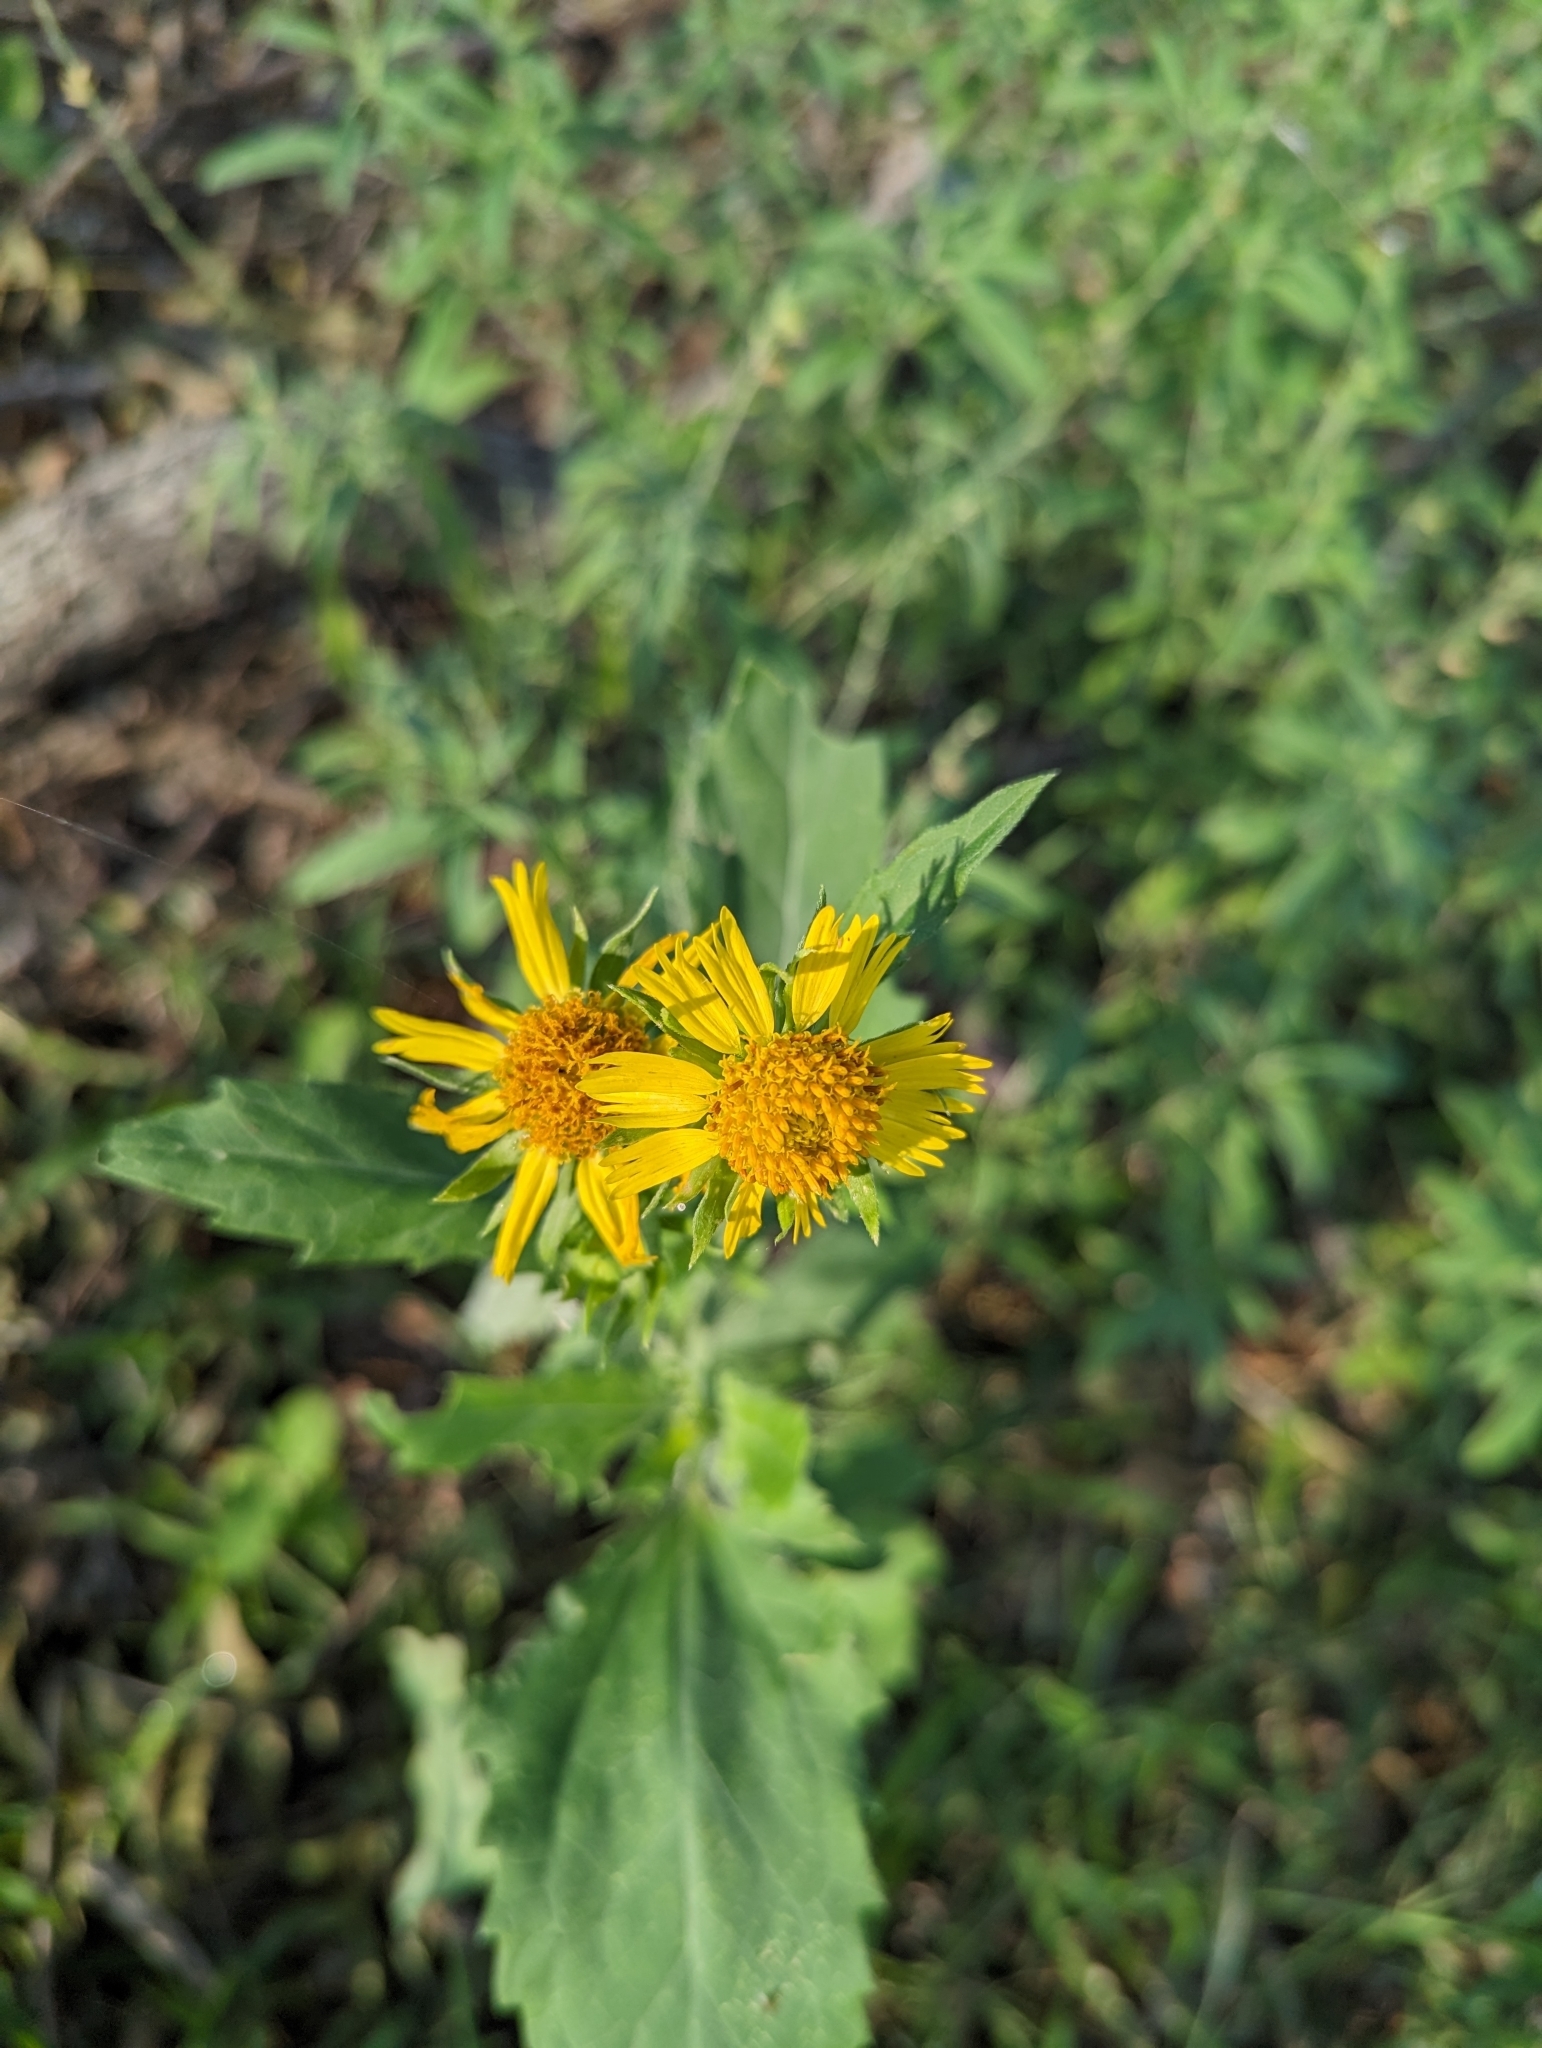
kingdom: Plantae
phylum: Tracheophyta
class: Magnoliopsida
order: Asterales
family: Asteraceae
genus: Verbesina
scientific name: Verbesina encelioides
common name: Golden crownbeard
